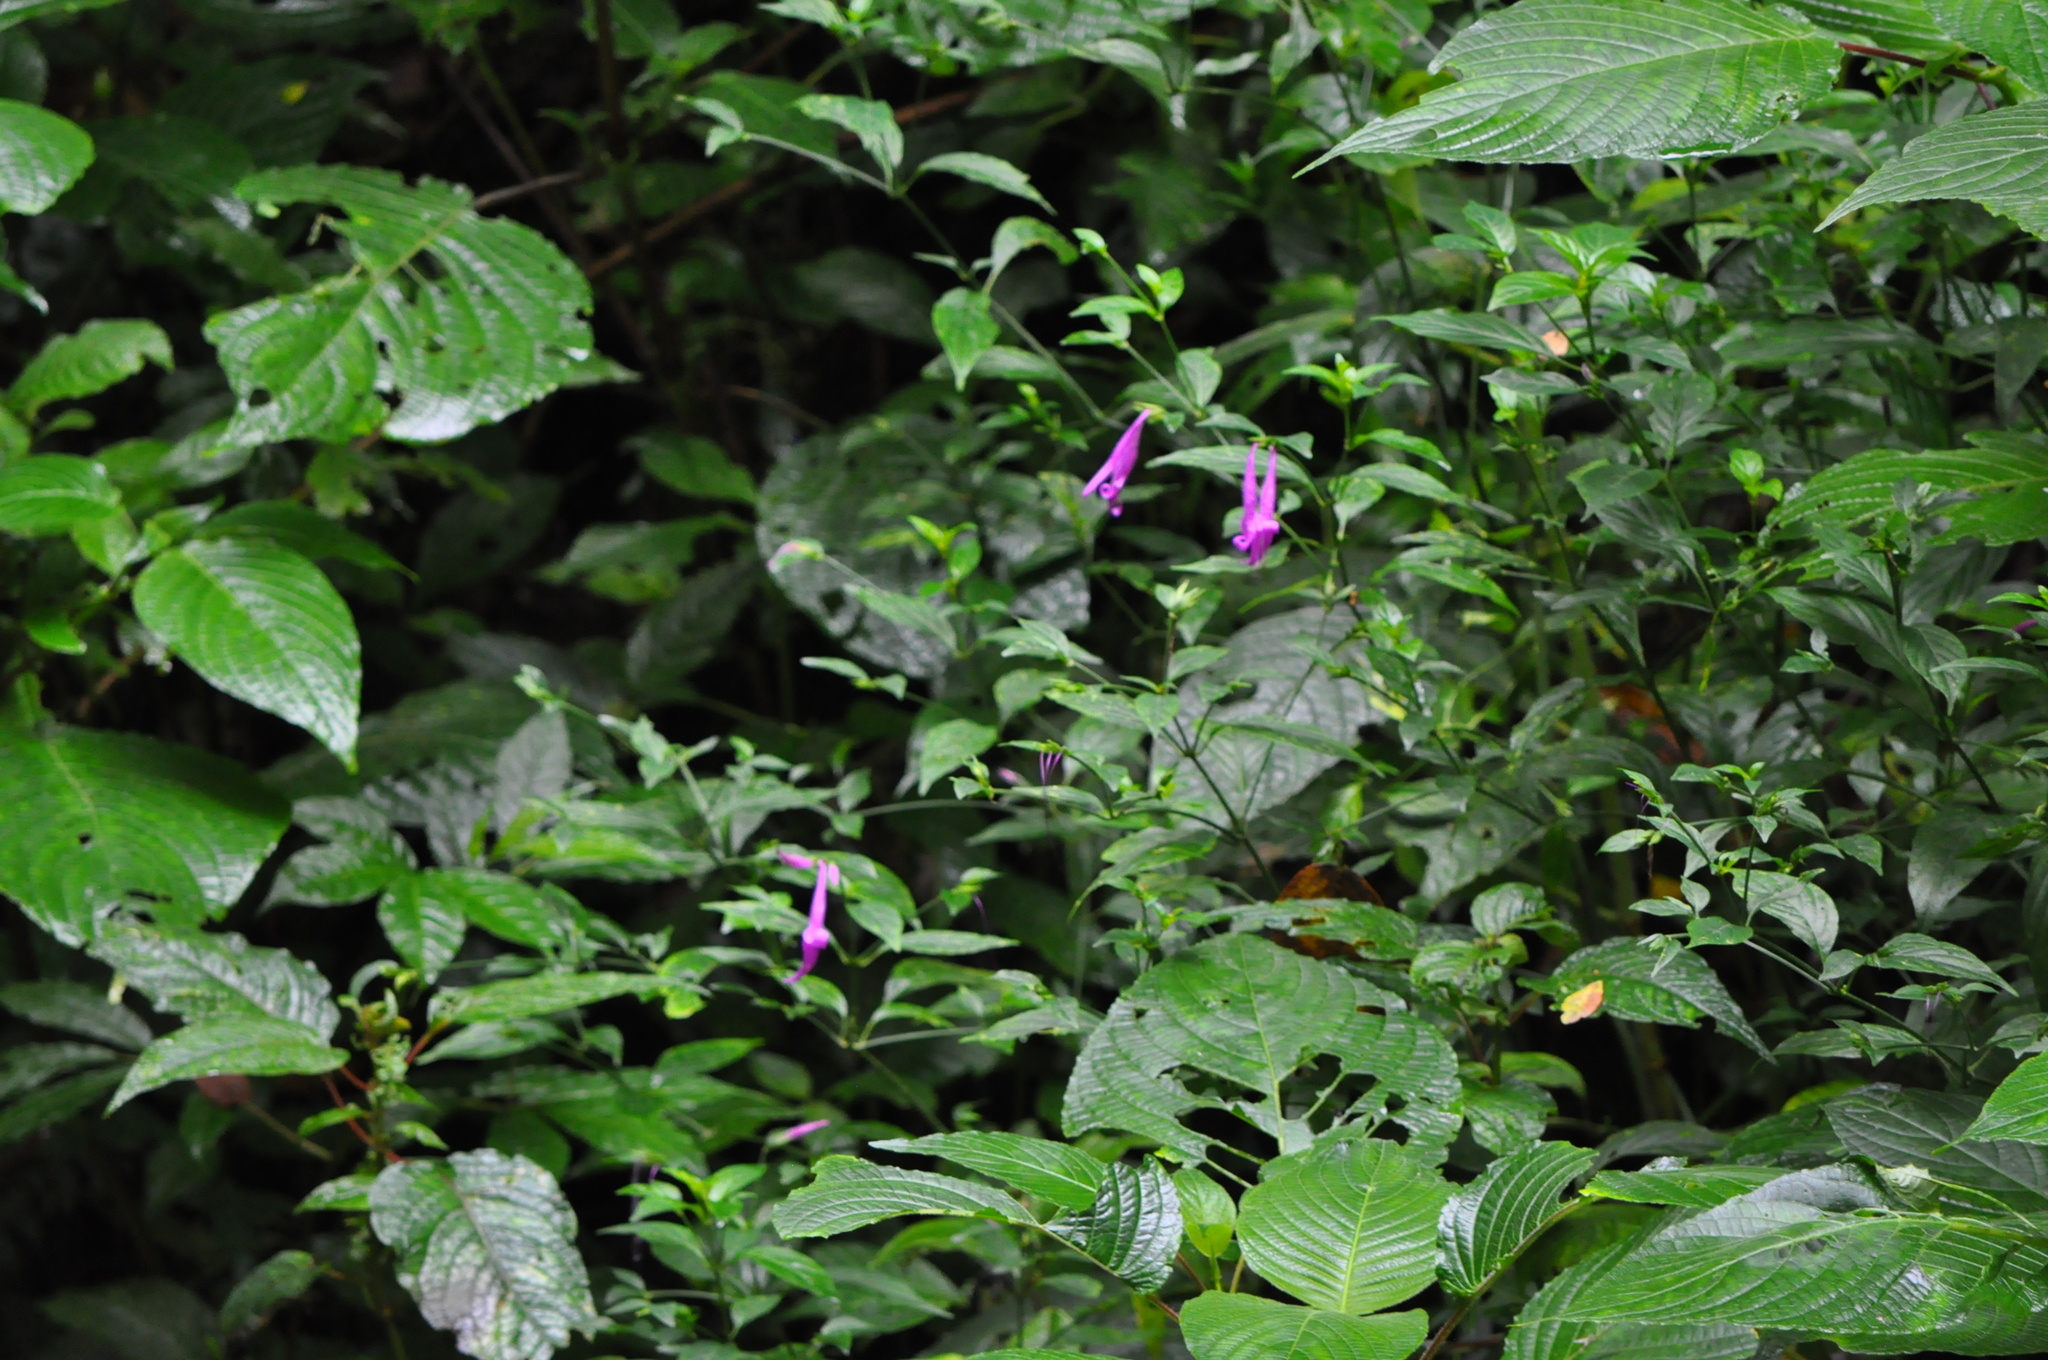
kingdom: Plantae
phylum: Tracheophyta
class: Magnoliopsida
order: Lamiales
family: Acanthaceae
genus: Dicliptera
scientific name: Dicliptera iopus
